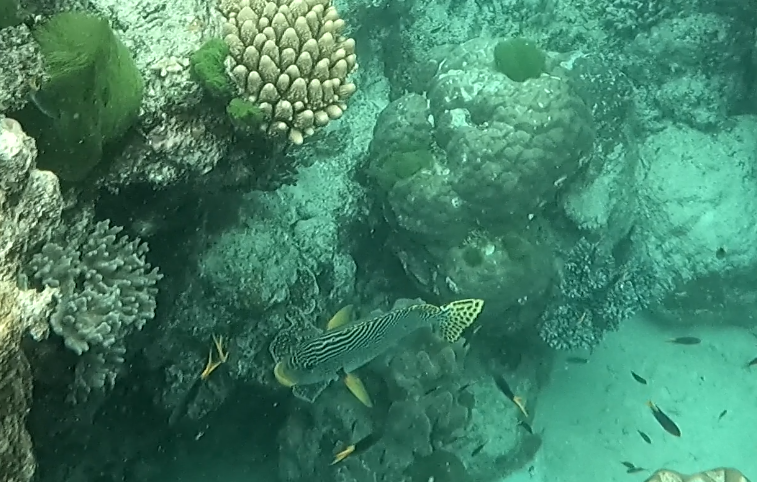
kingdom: Animalia
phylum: Chordata
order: Perciformes
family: Haemulidae
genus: Plectorhinchus
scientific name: Plectorhinchus lineatus
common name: Goldman's sweetlips
